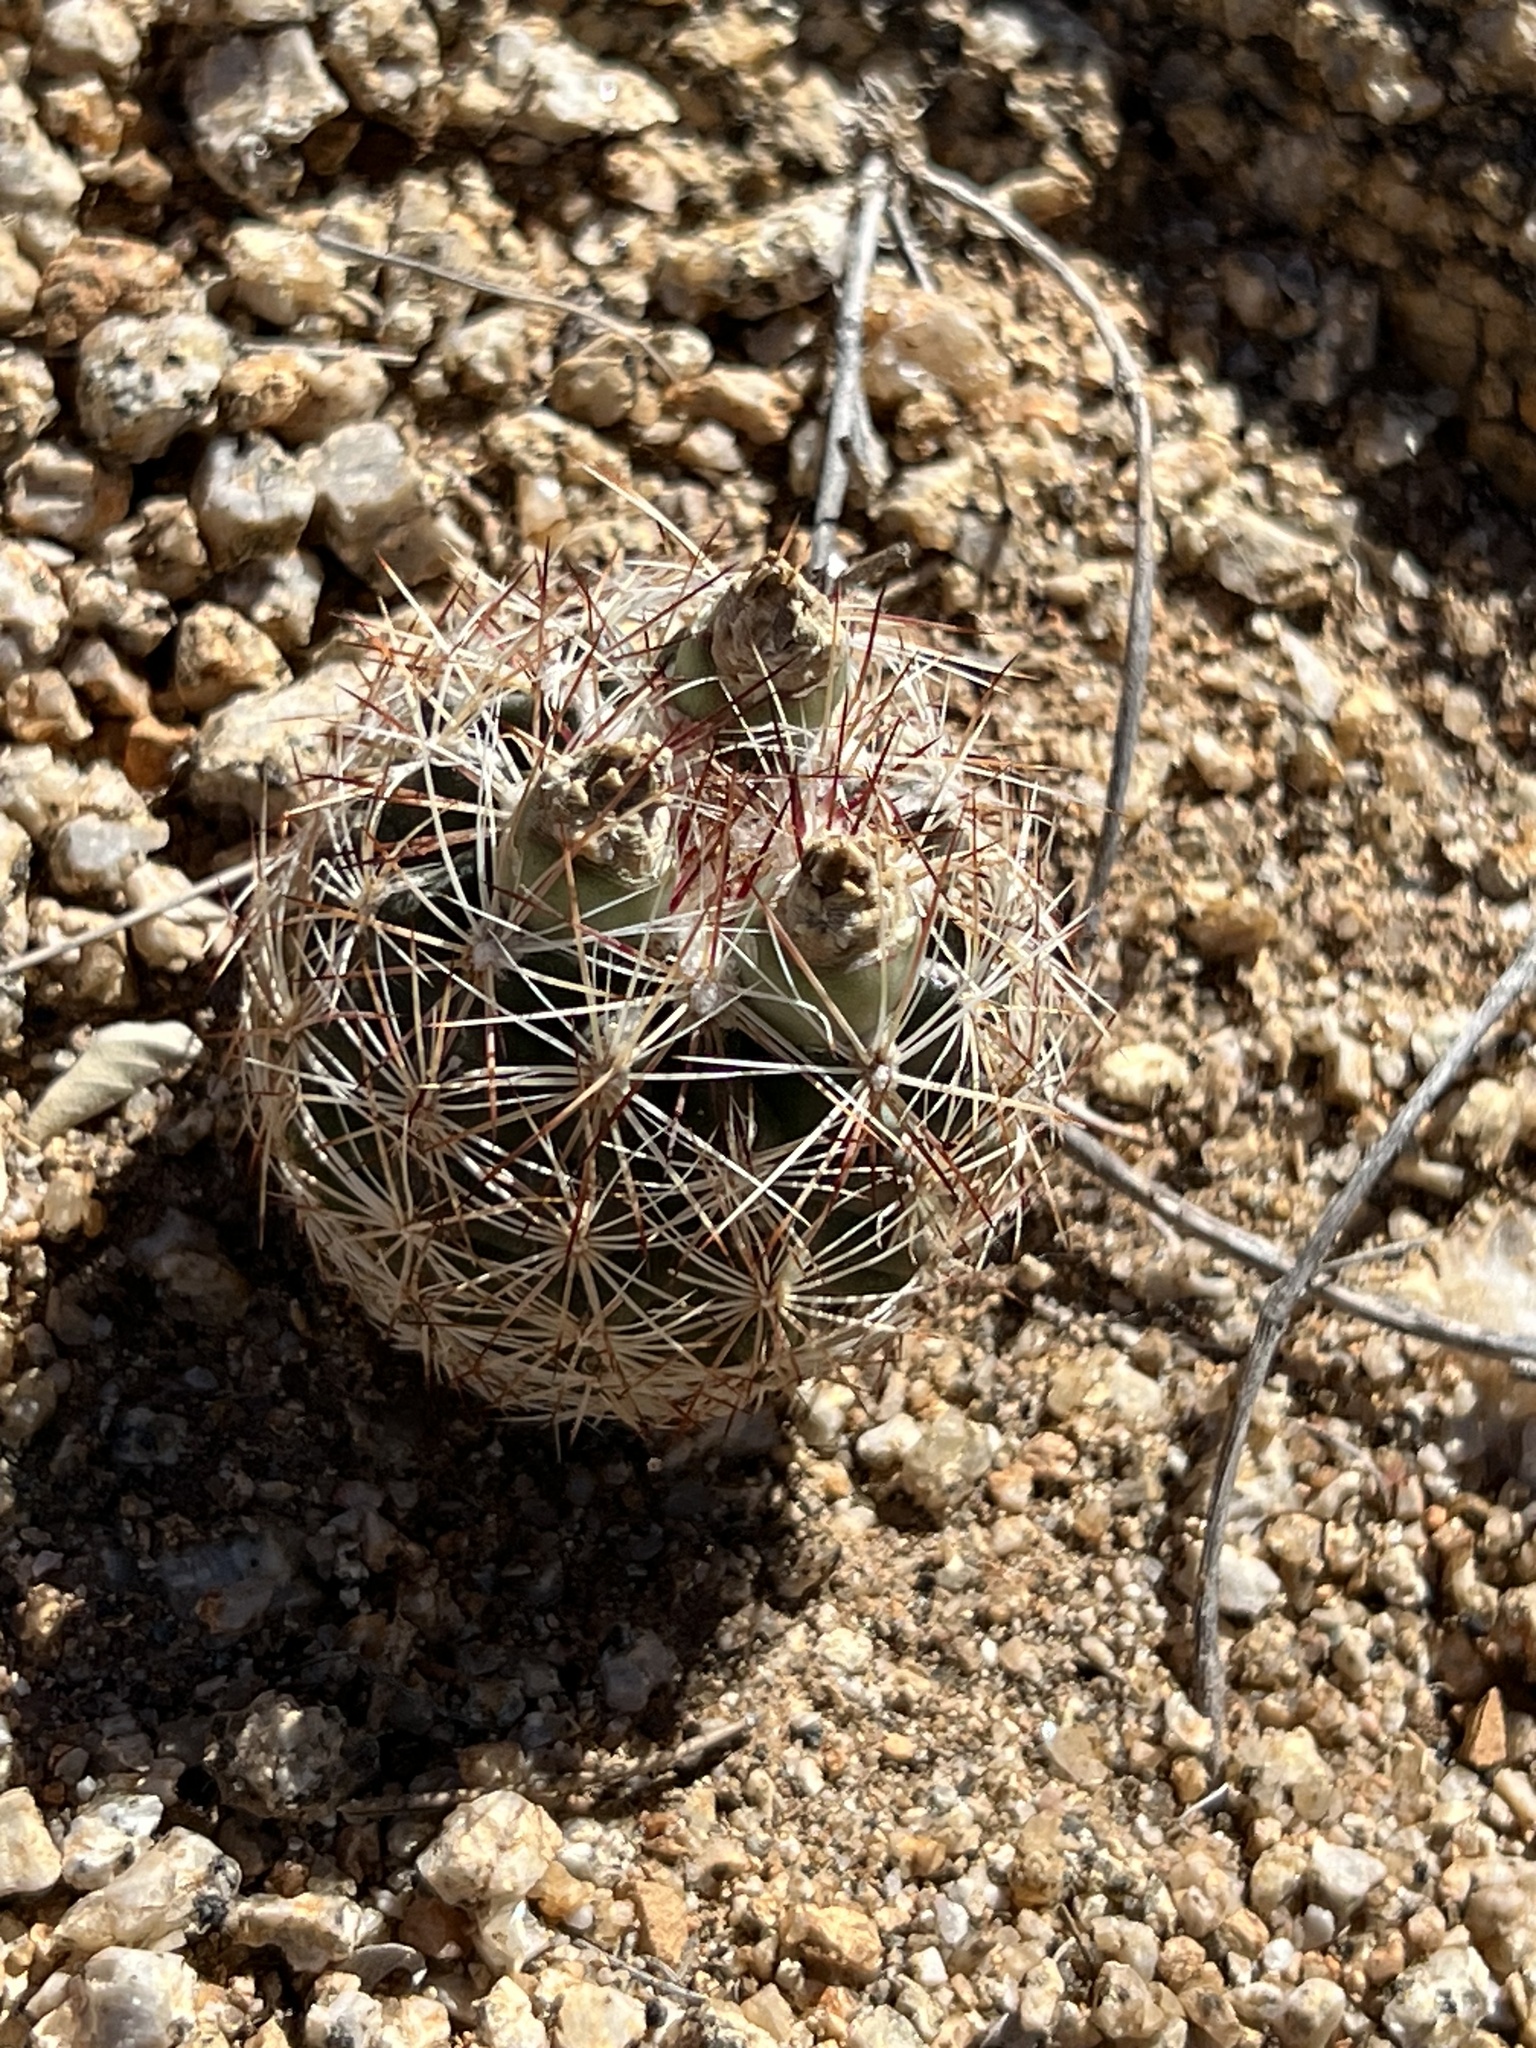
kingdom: Plantae
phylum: Tracheophyta
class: Magnoliopsida
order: Caryophyllales
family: Cactaceae
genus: Sclerocactus
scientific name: Sclerocactus intertextus
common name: White fish-hook cactus
